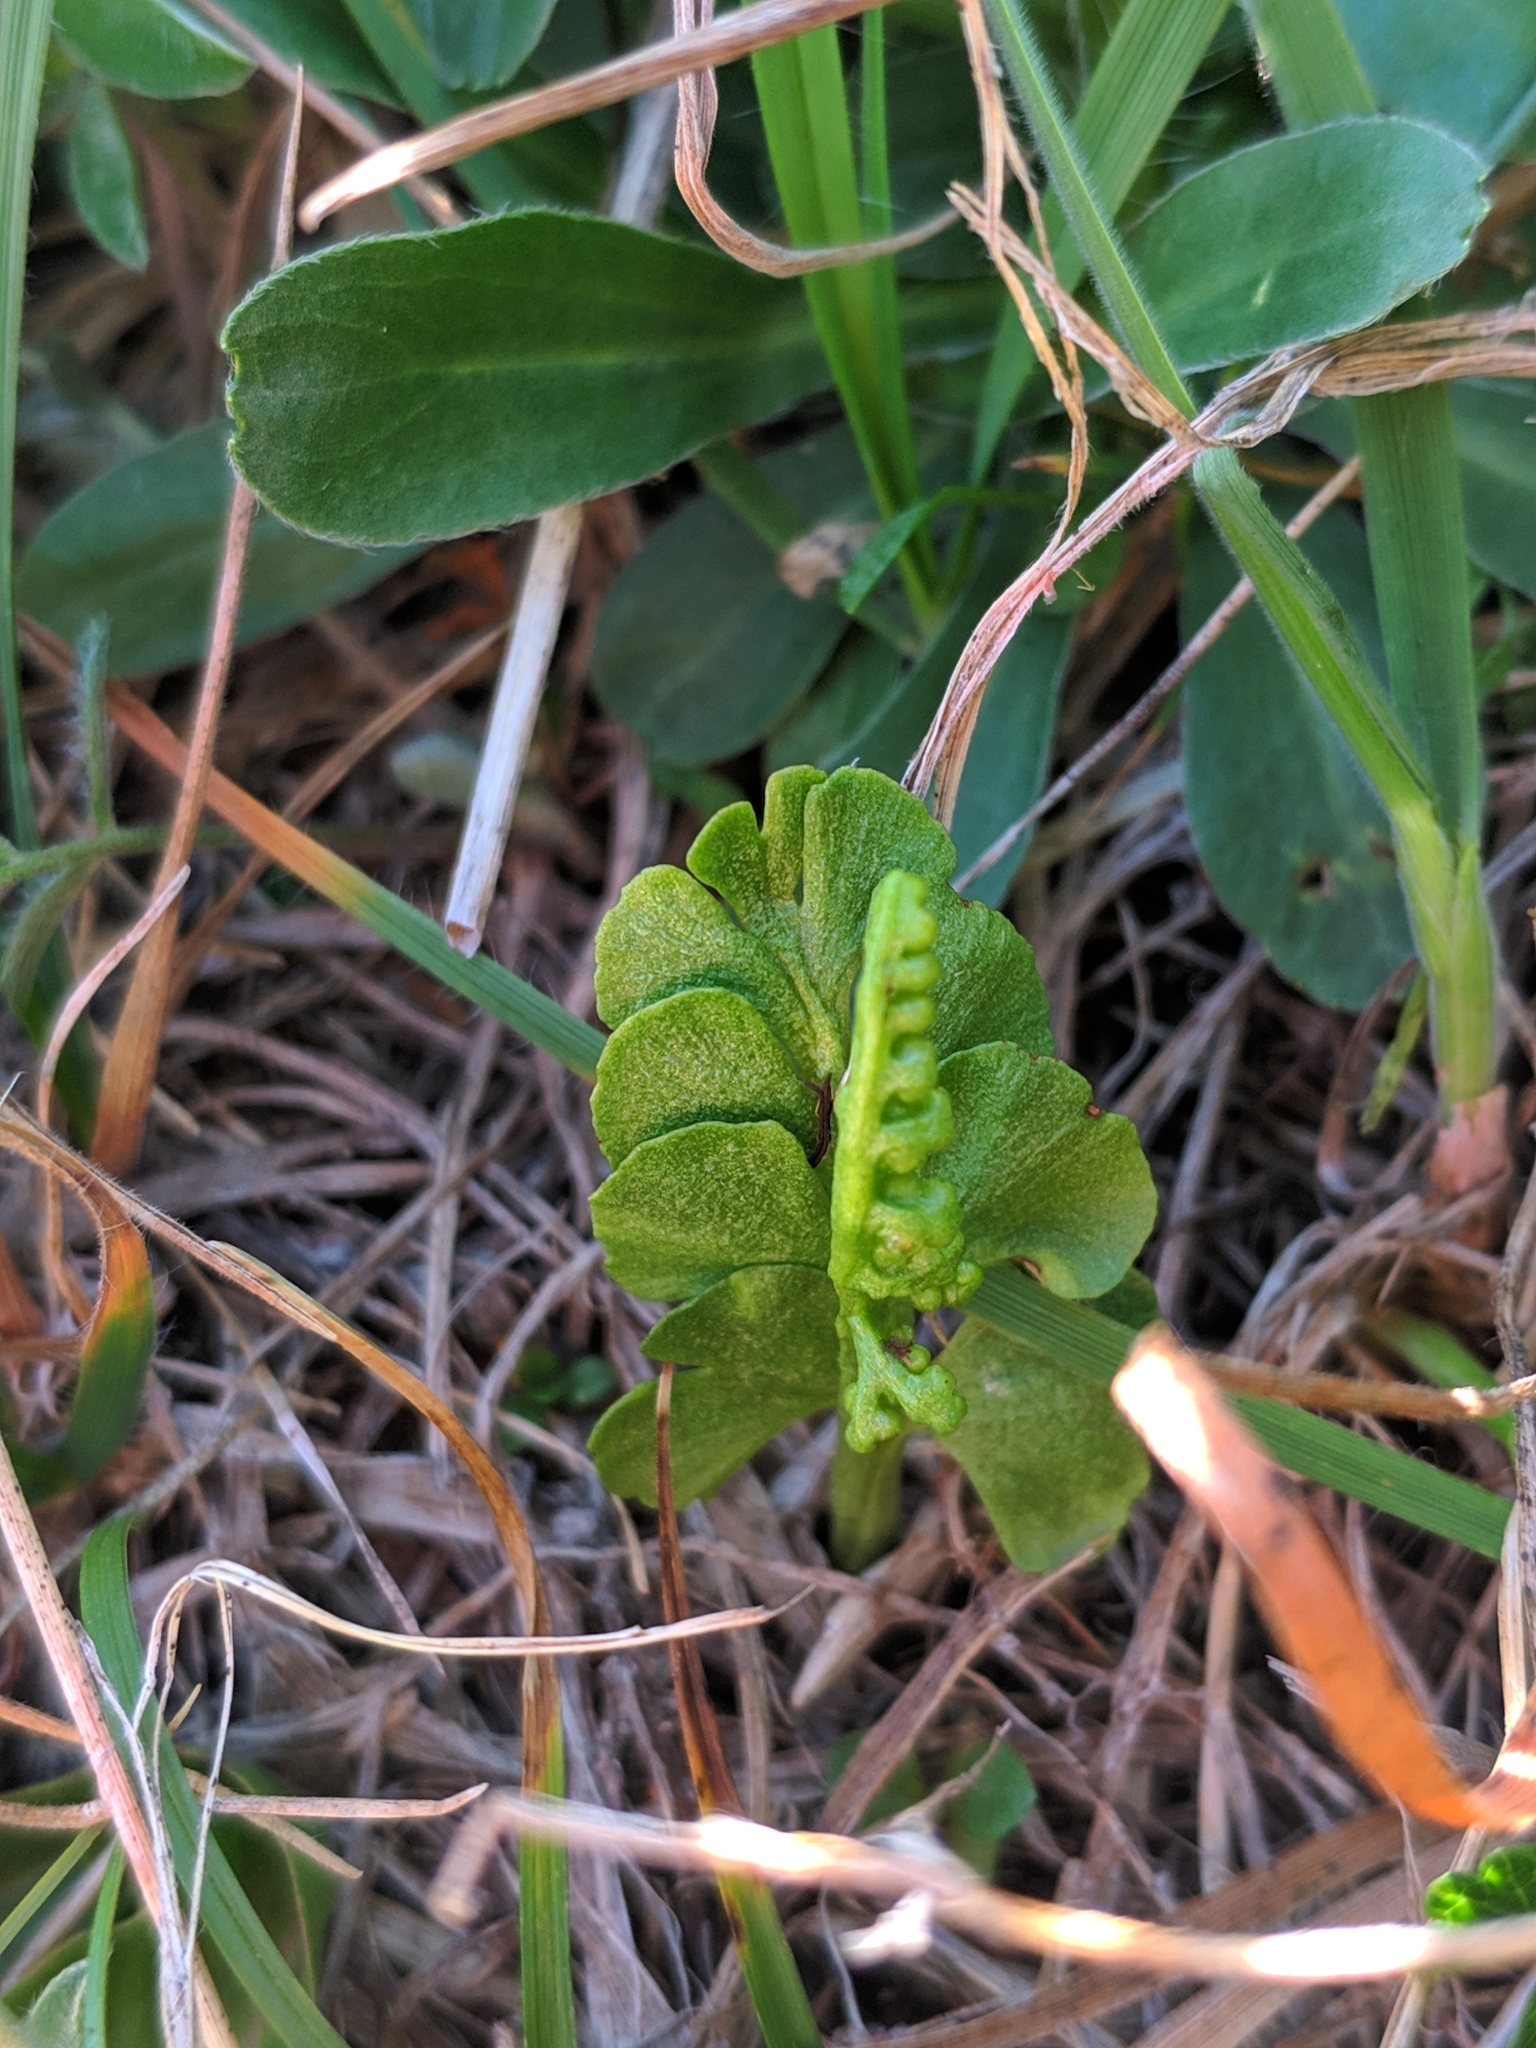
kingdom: Plantae
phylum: Tracheophyta
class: Polypodiopsida
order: Ophioglossales
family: Ophioglossaceae
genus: Botrychium
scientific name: Botrychium lunaria
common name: Moonwort
